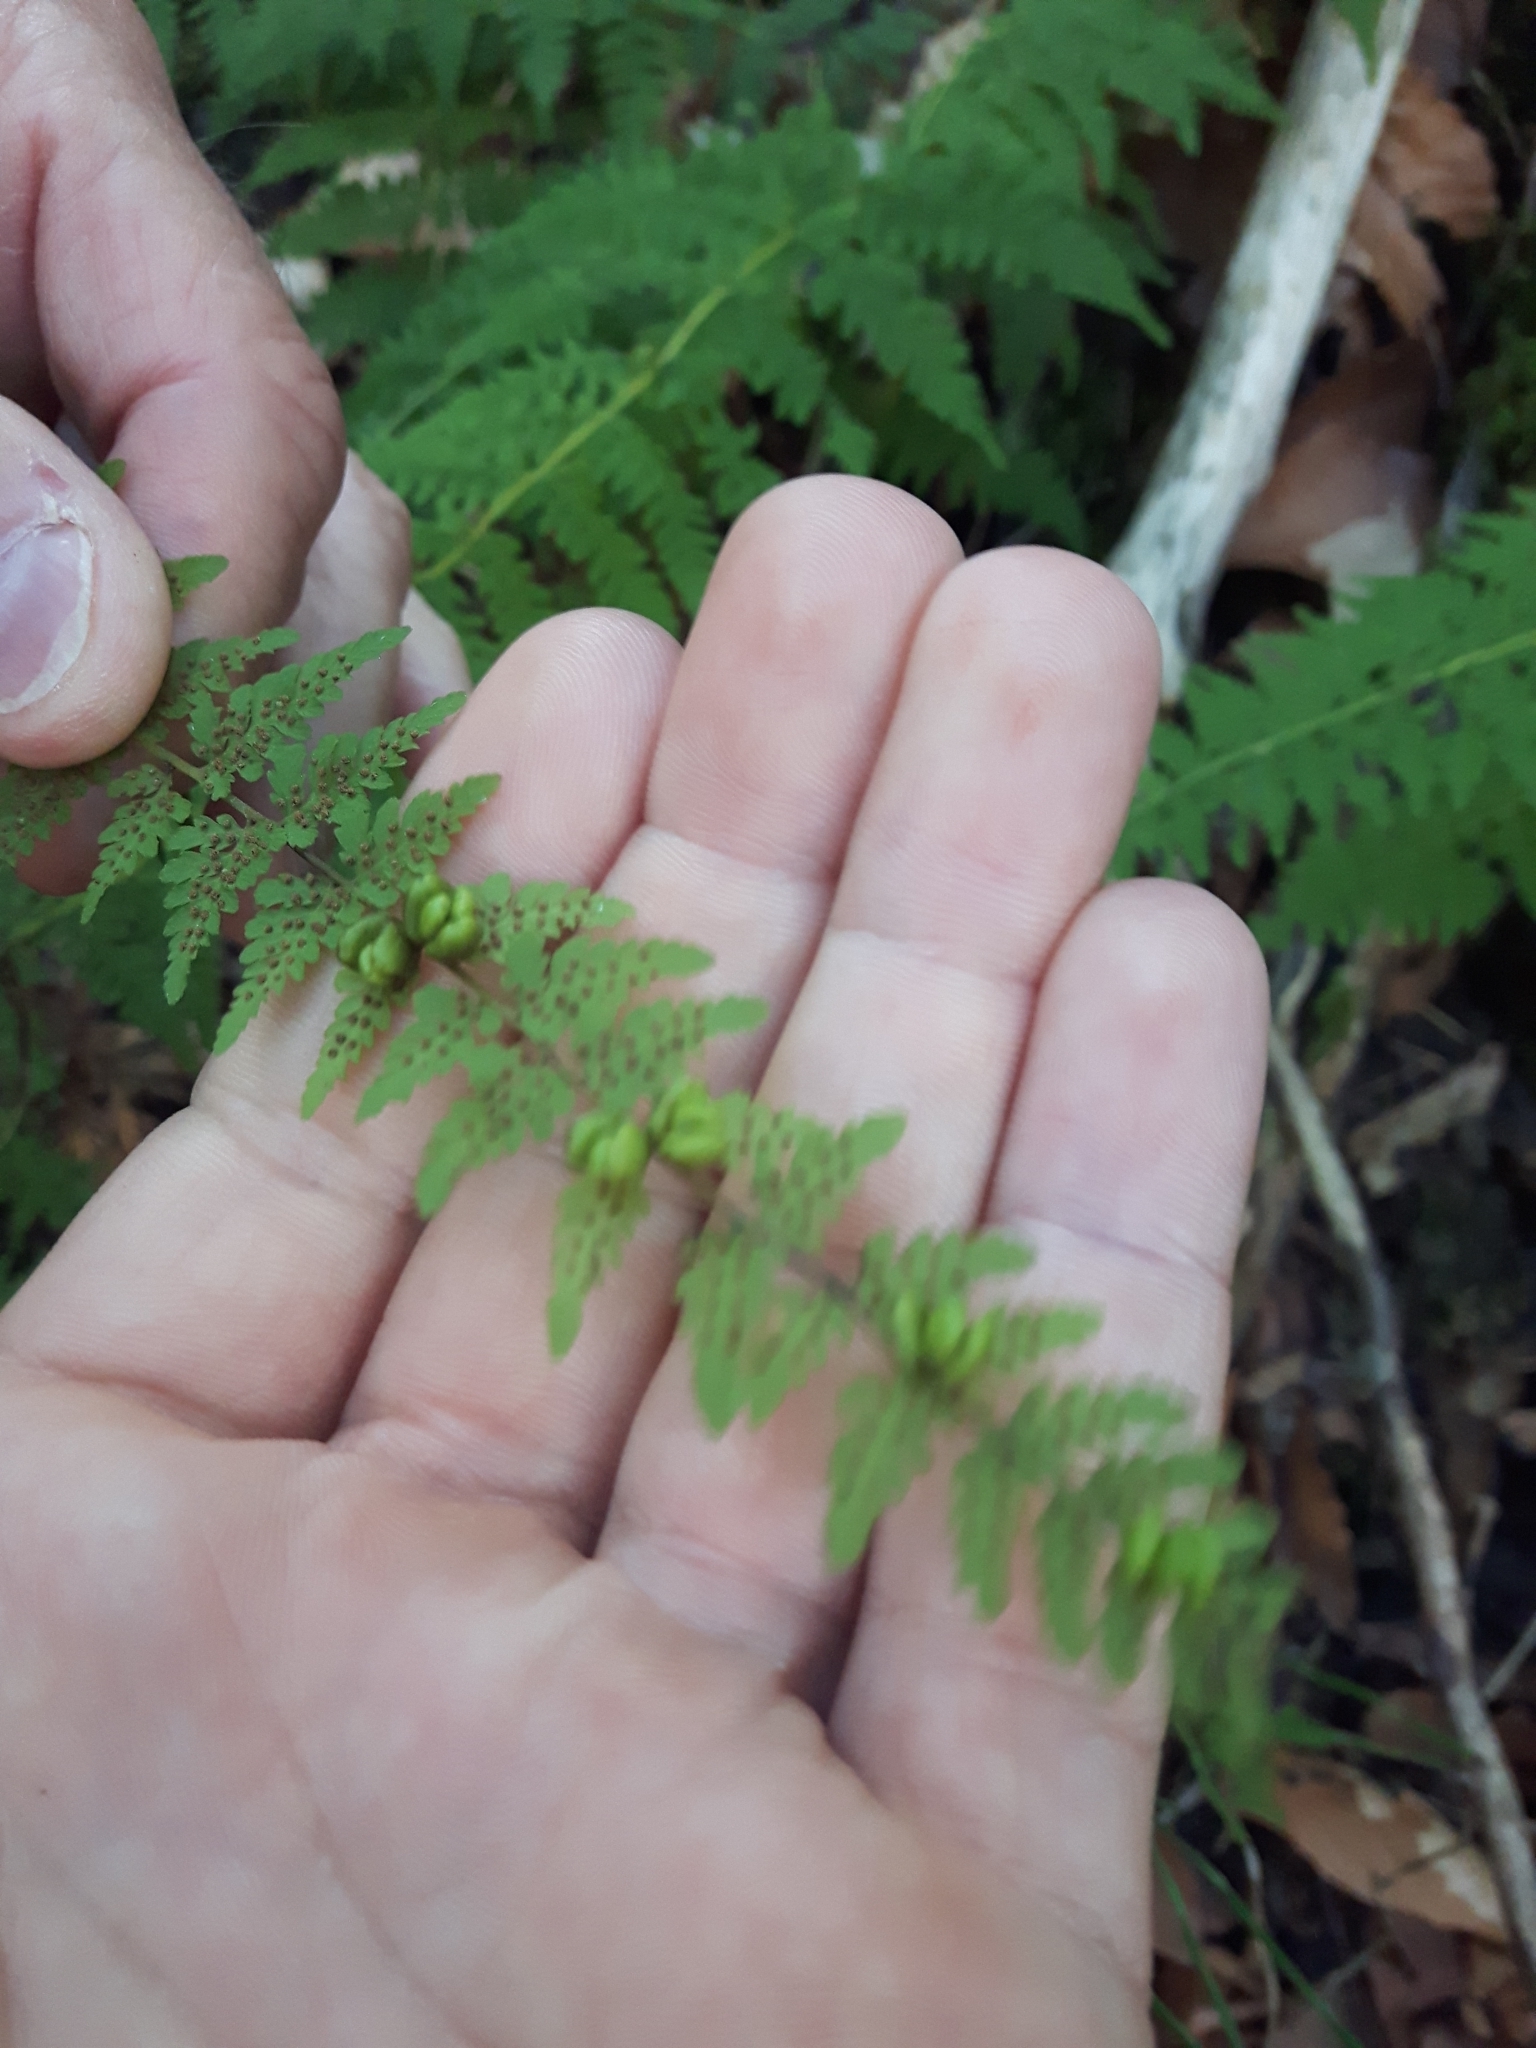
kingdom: Plantae
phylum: Tracheophyta
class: Polypodiopsida
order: Polypodiales
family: Cystopteridaceae
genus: Cystopteris
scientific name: Cystopteris bulbifera
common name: Bulblet bladder fern
